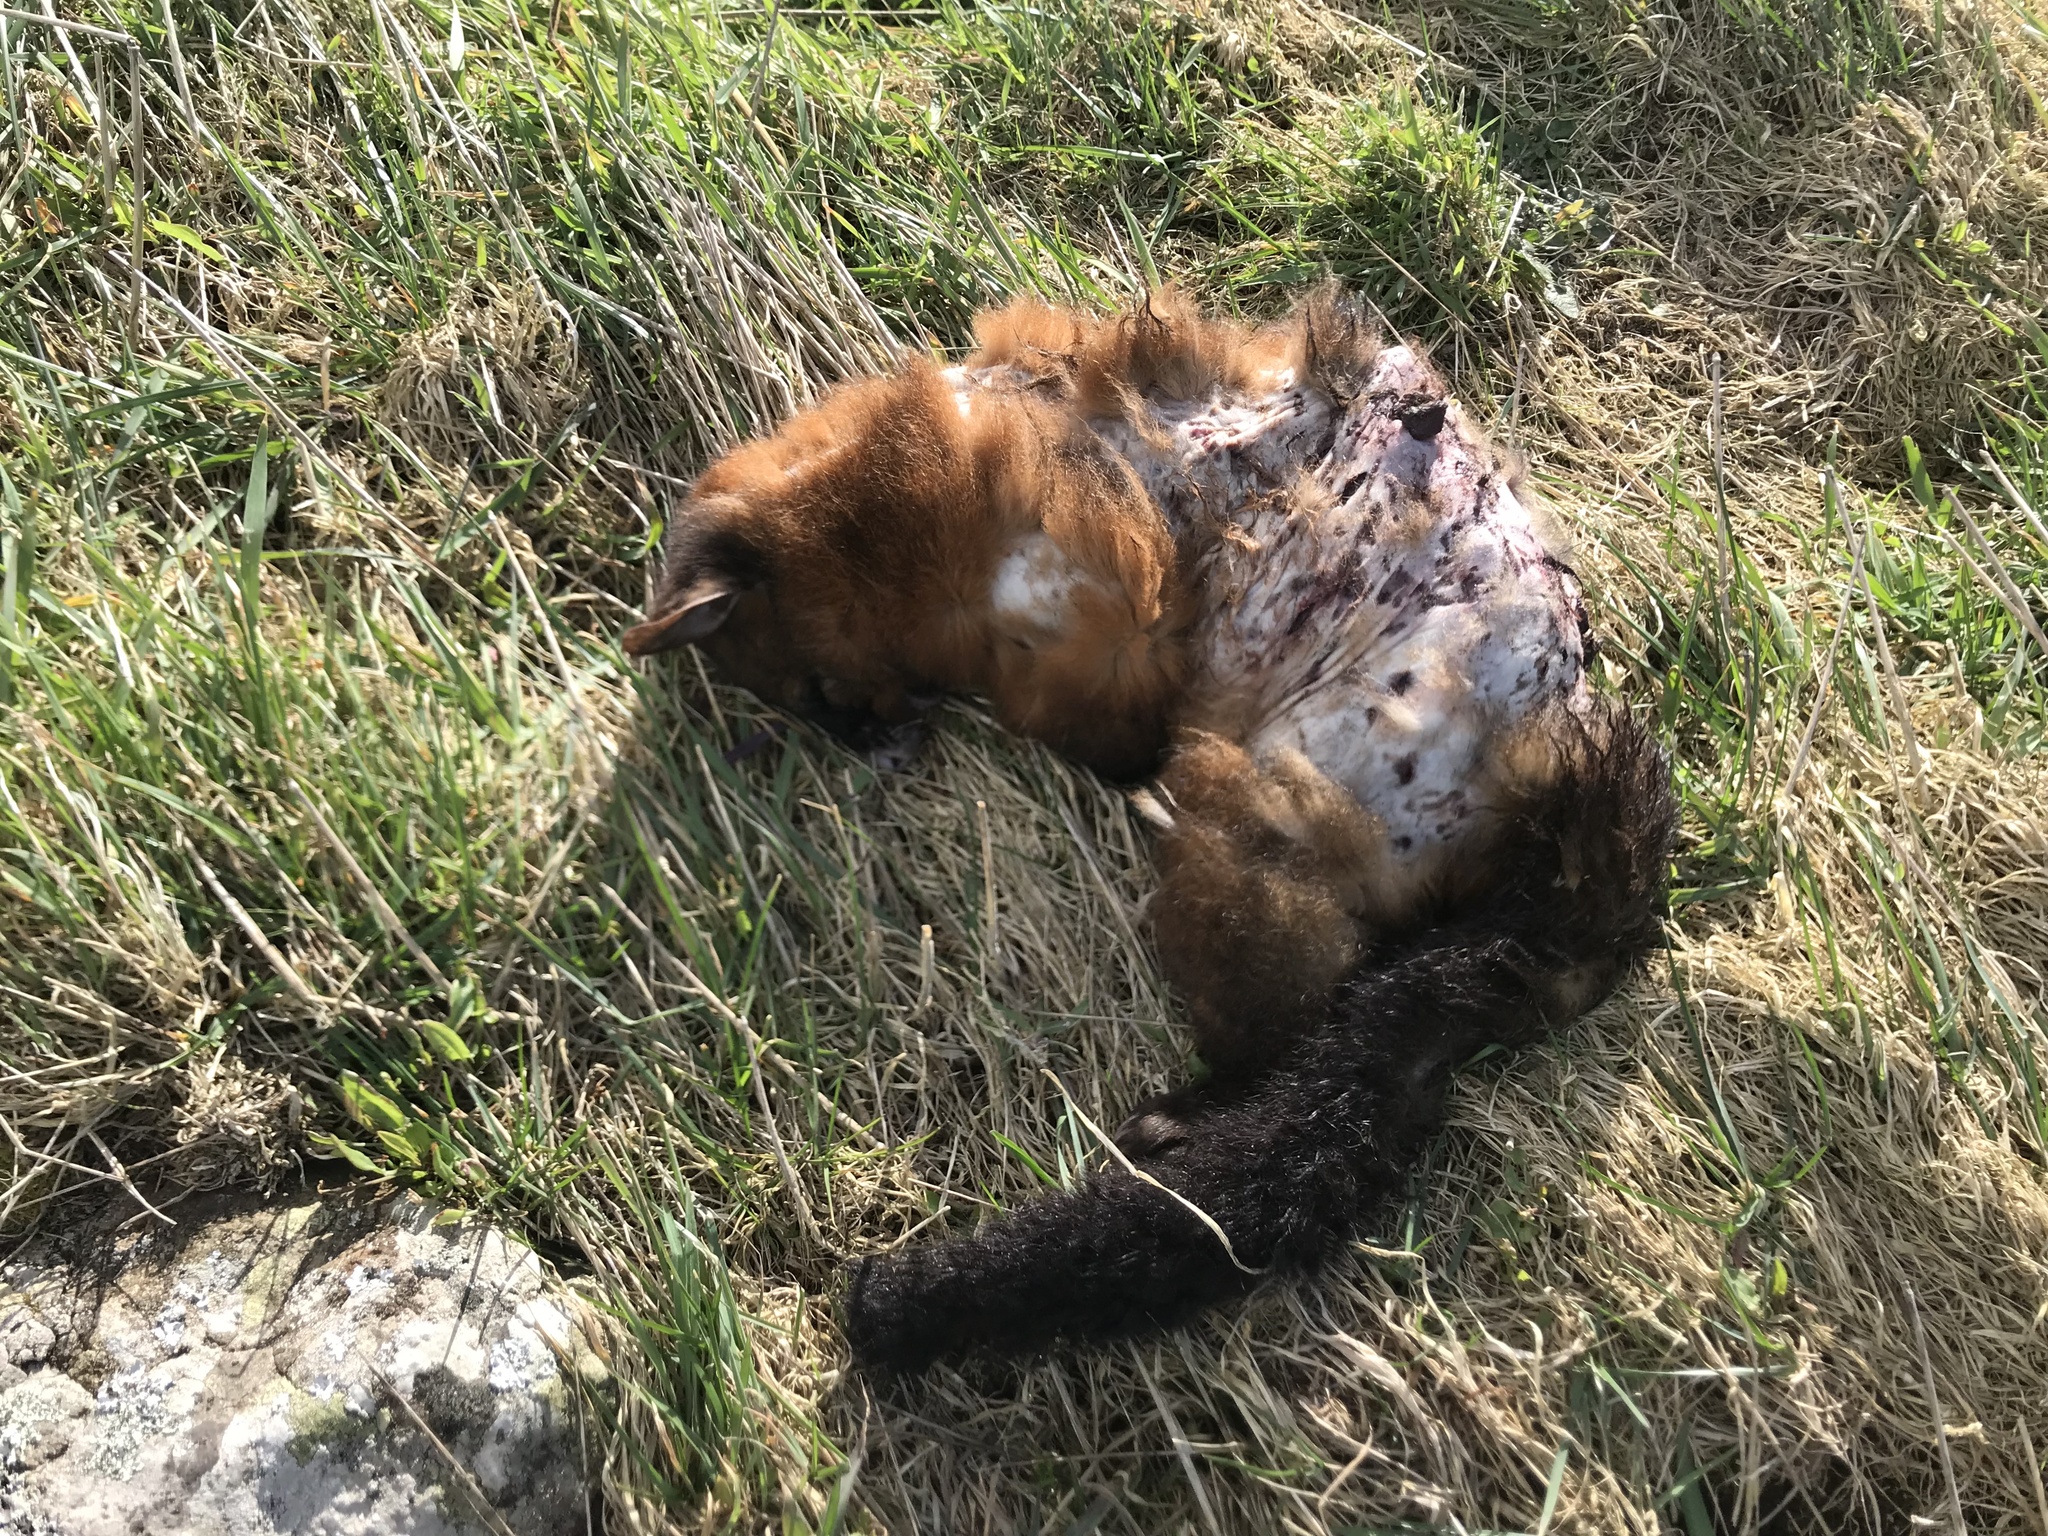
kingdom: Animalia
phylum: Chordata
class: Mammalia
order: Diprotodontia
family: Phalangeridae
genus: Trichosurus
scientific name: Trichosurus vulpecula
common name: Common brushtail
